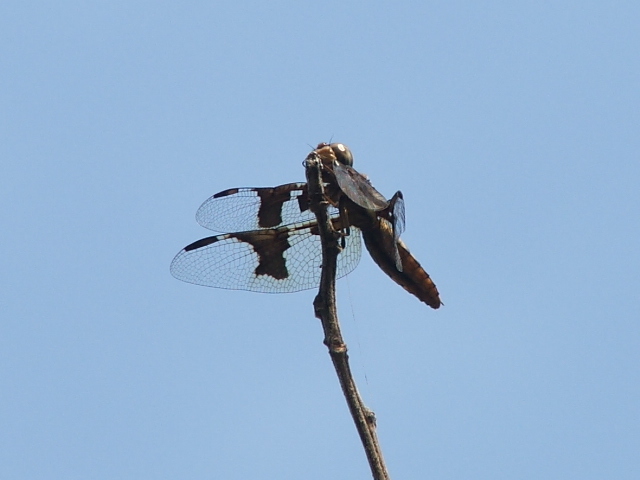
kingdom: Animalia
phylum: Arthropoda
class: Insecta
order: Odonata
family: Libellulidae
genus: Palpopleura
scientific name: Palpopleura lucia
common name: Lucia widow
